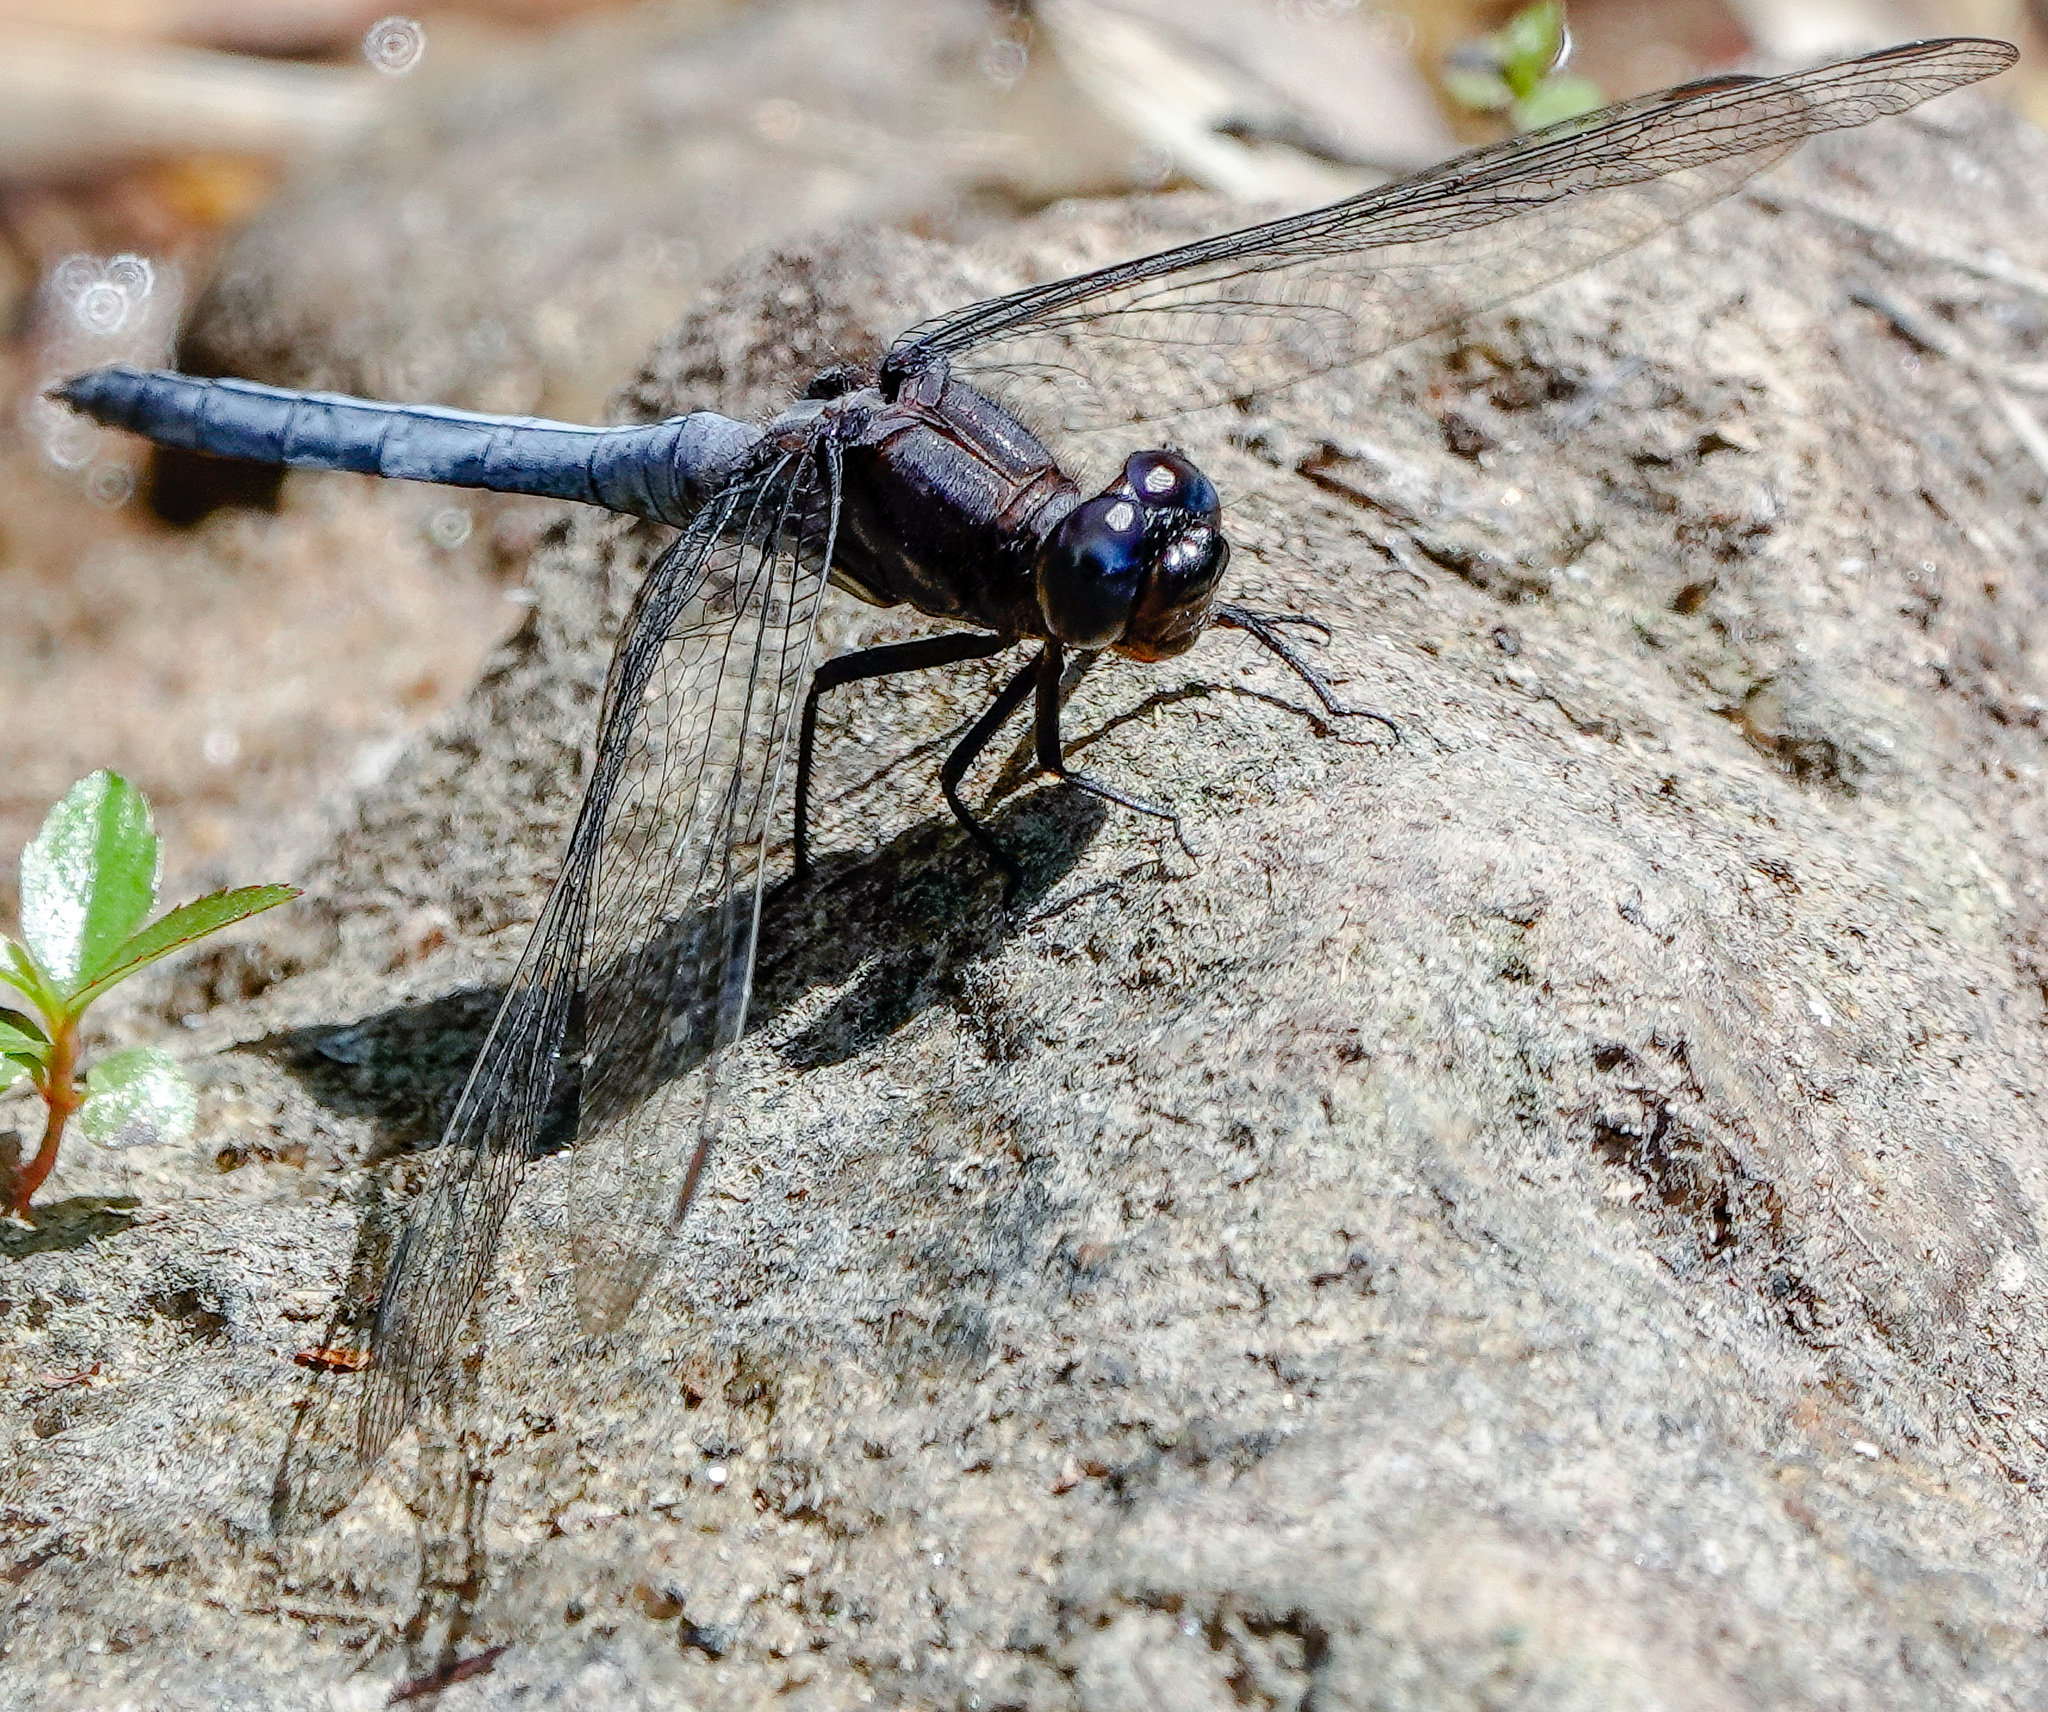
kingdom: Animalia
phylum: Arthropoda
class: Insecta
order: Odonata
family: Libellulidae
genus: Orthetrum
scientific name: Orthetrum glaucum
